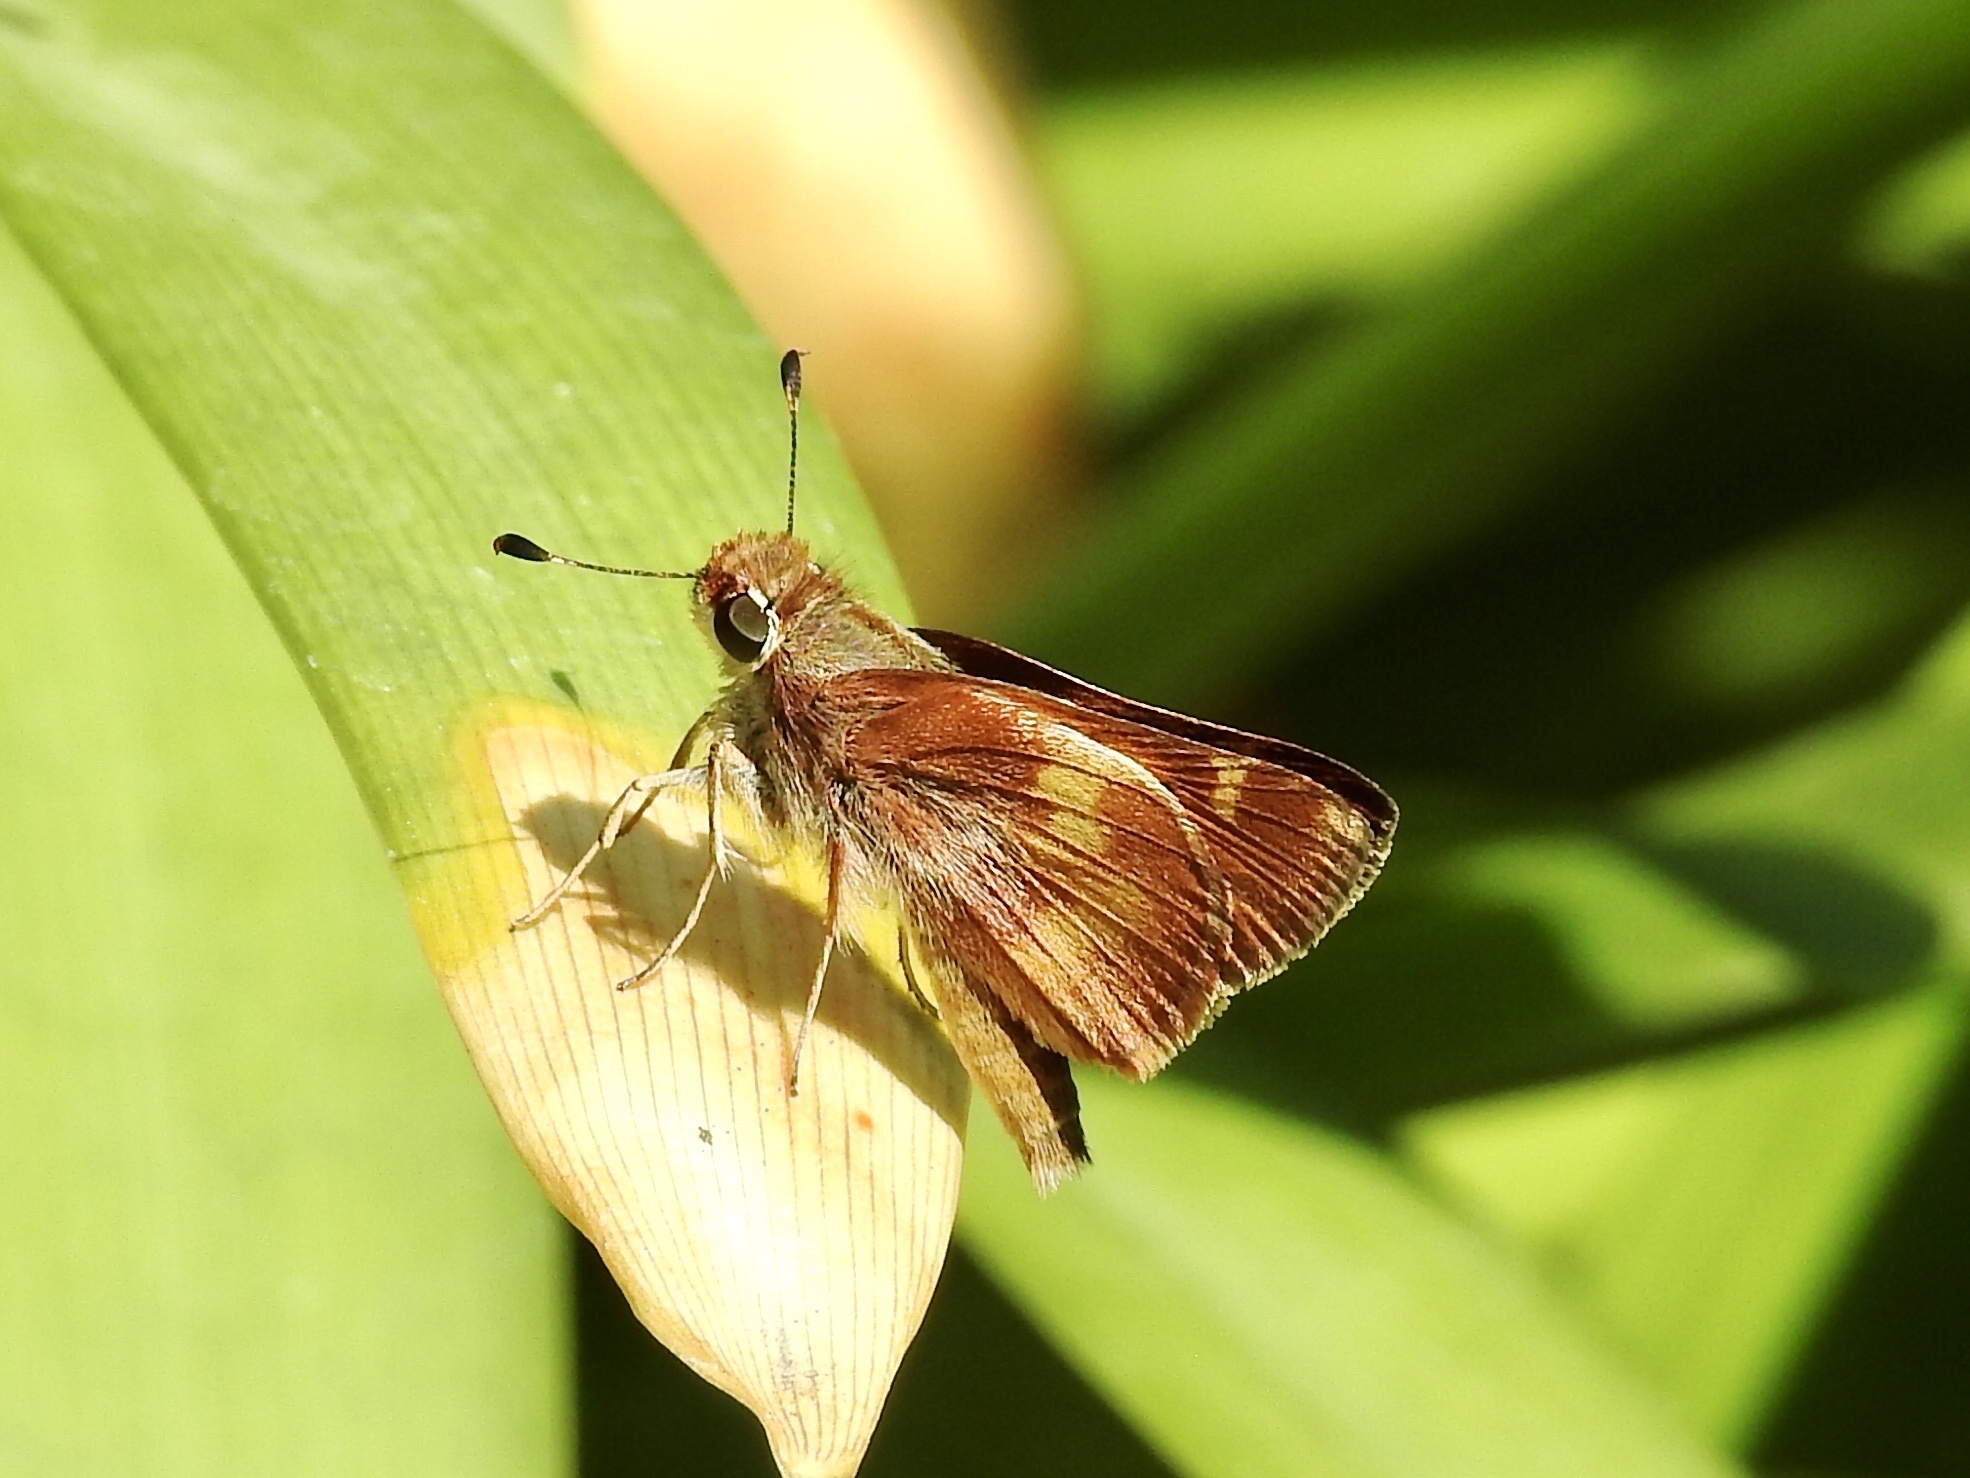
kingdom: Animalia
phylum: Arthropoda
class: Insecta
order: Lepidoptera
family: Hesperiidae
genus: Lon
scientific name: Lon melane
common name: Umber skipper
